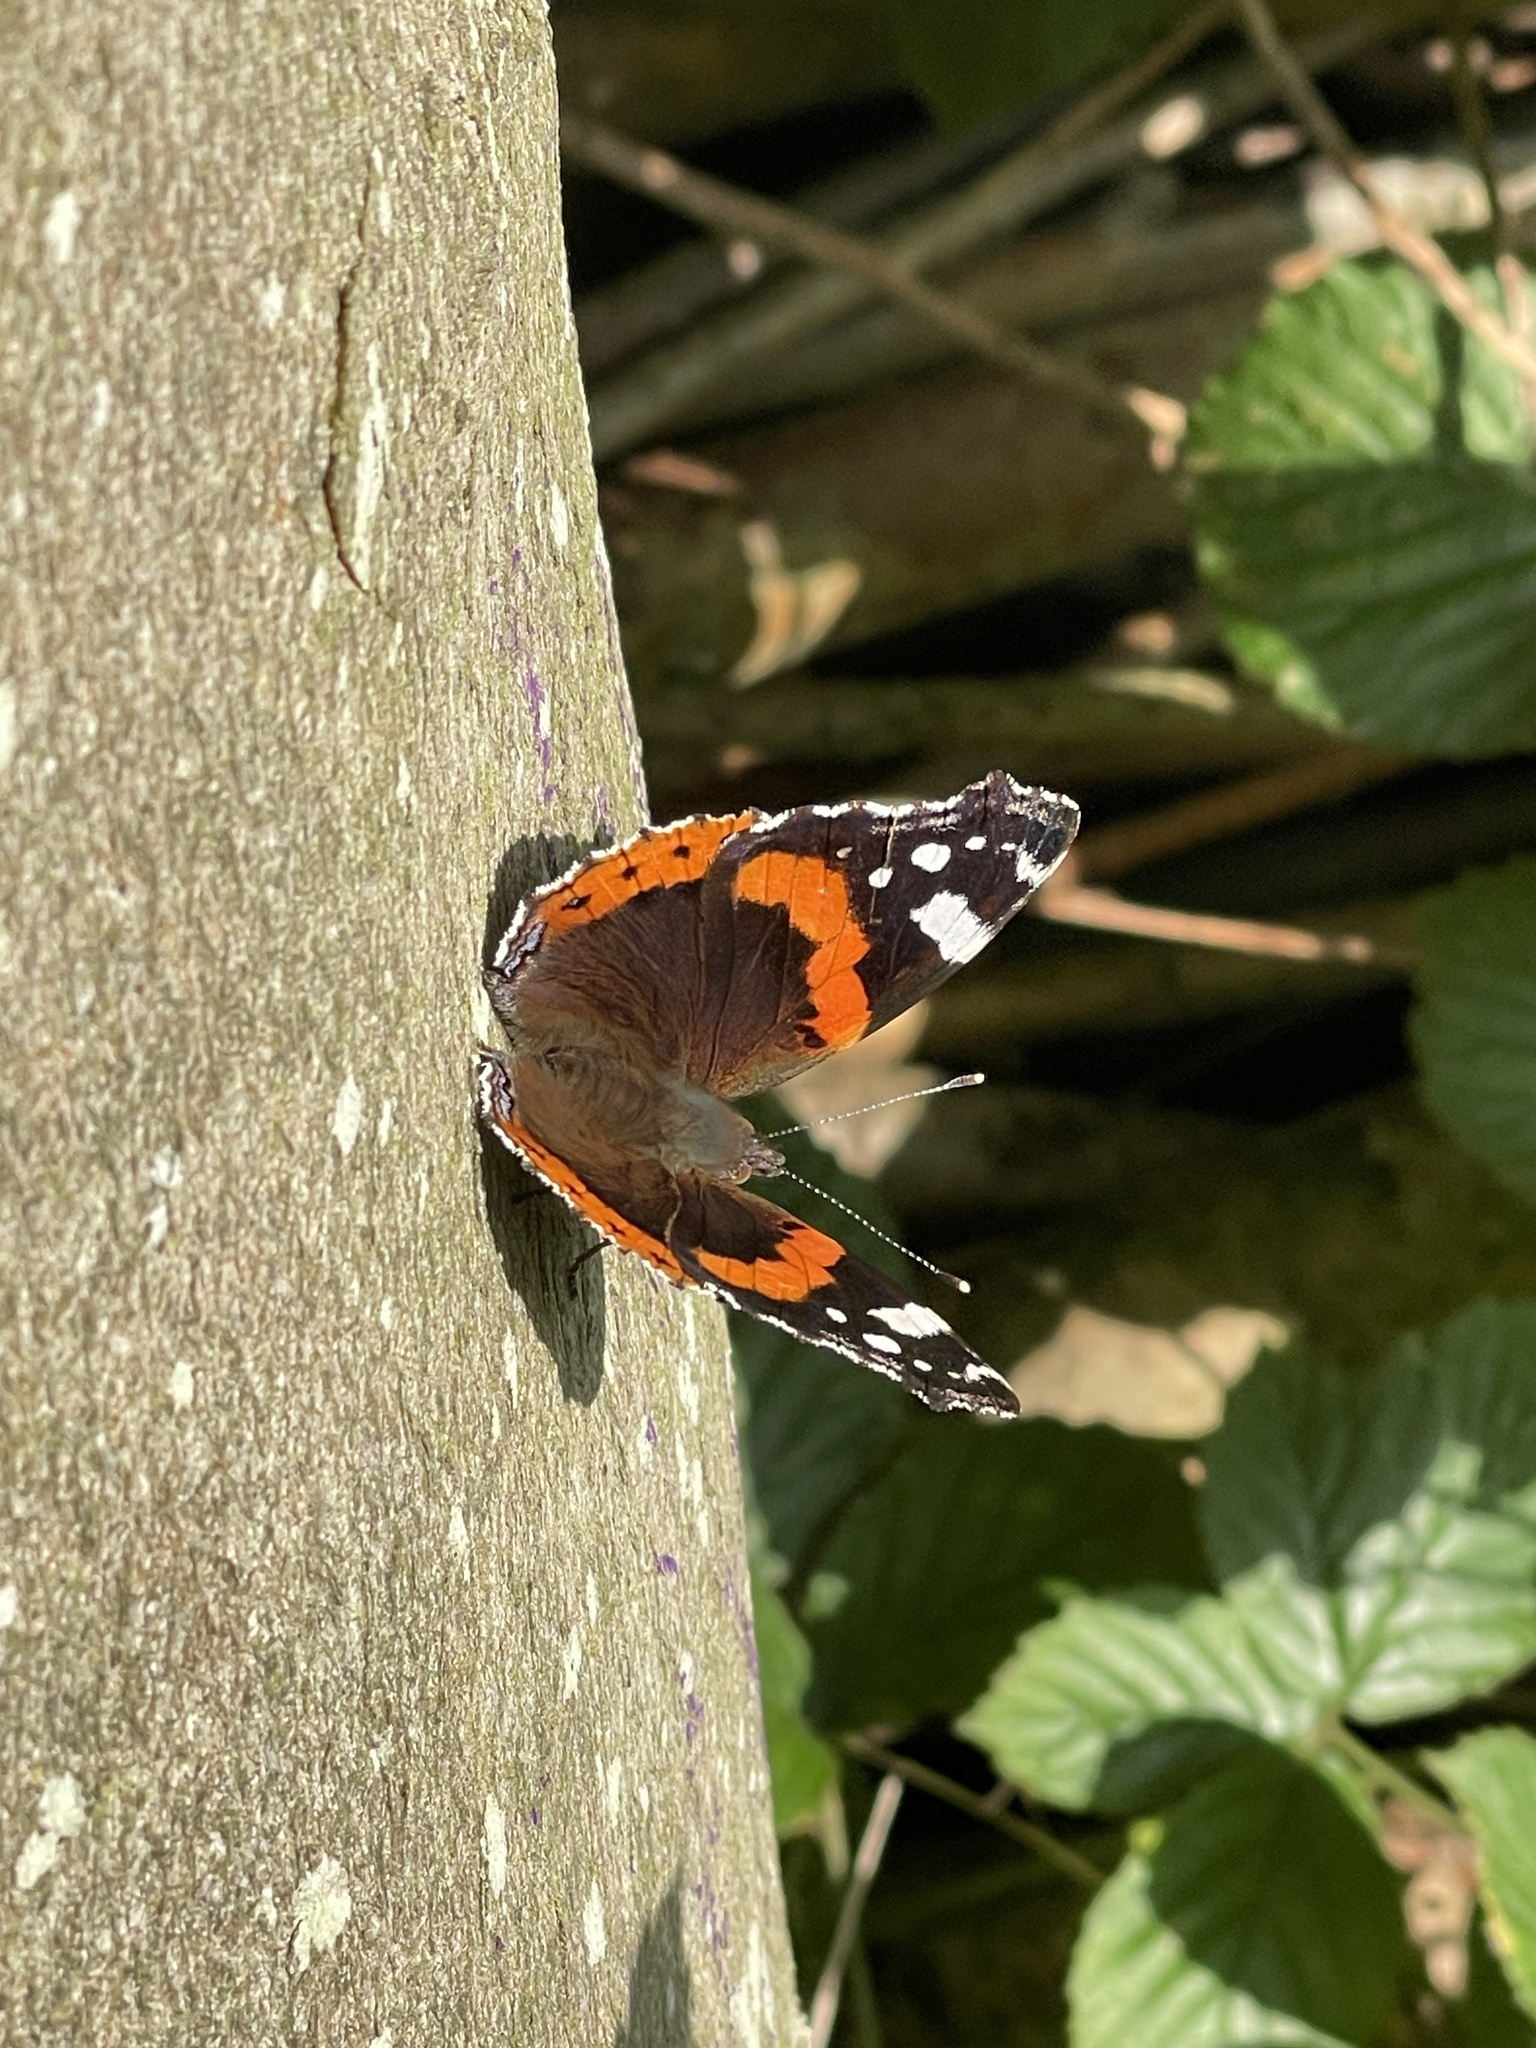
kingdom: Animalia
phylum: Arthropoda
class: Insecta
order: Lepidoptera
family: Nymphalidae
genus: Vanessa
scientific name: Vanessa atalanta
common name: Red admiral
